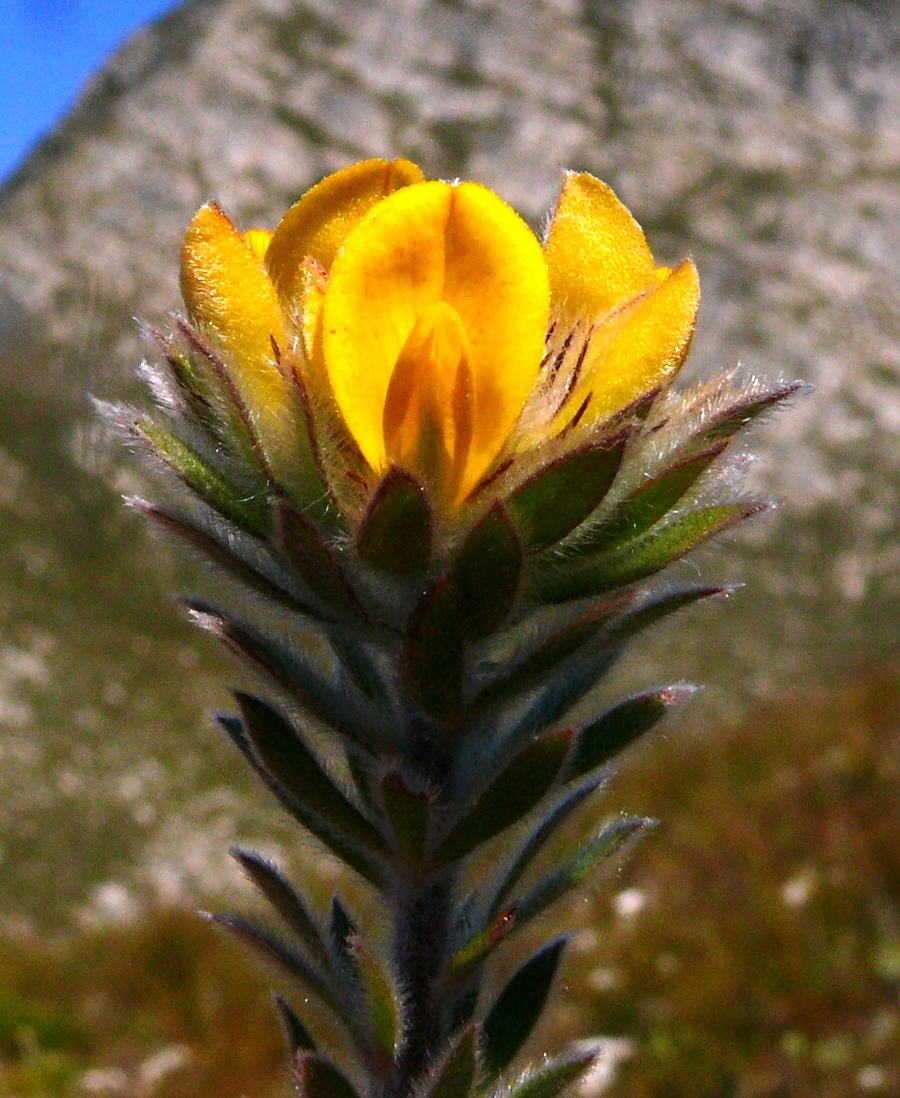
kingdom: Plantae
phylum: Tracheophyta
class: Magnoliopsida
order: Fabales
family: Fabaceae
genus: Aspalathus
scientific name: Aspalathus aspalathoides
